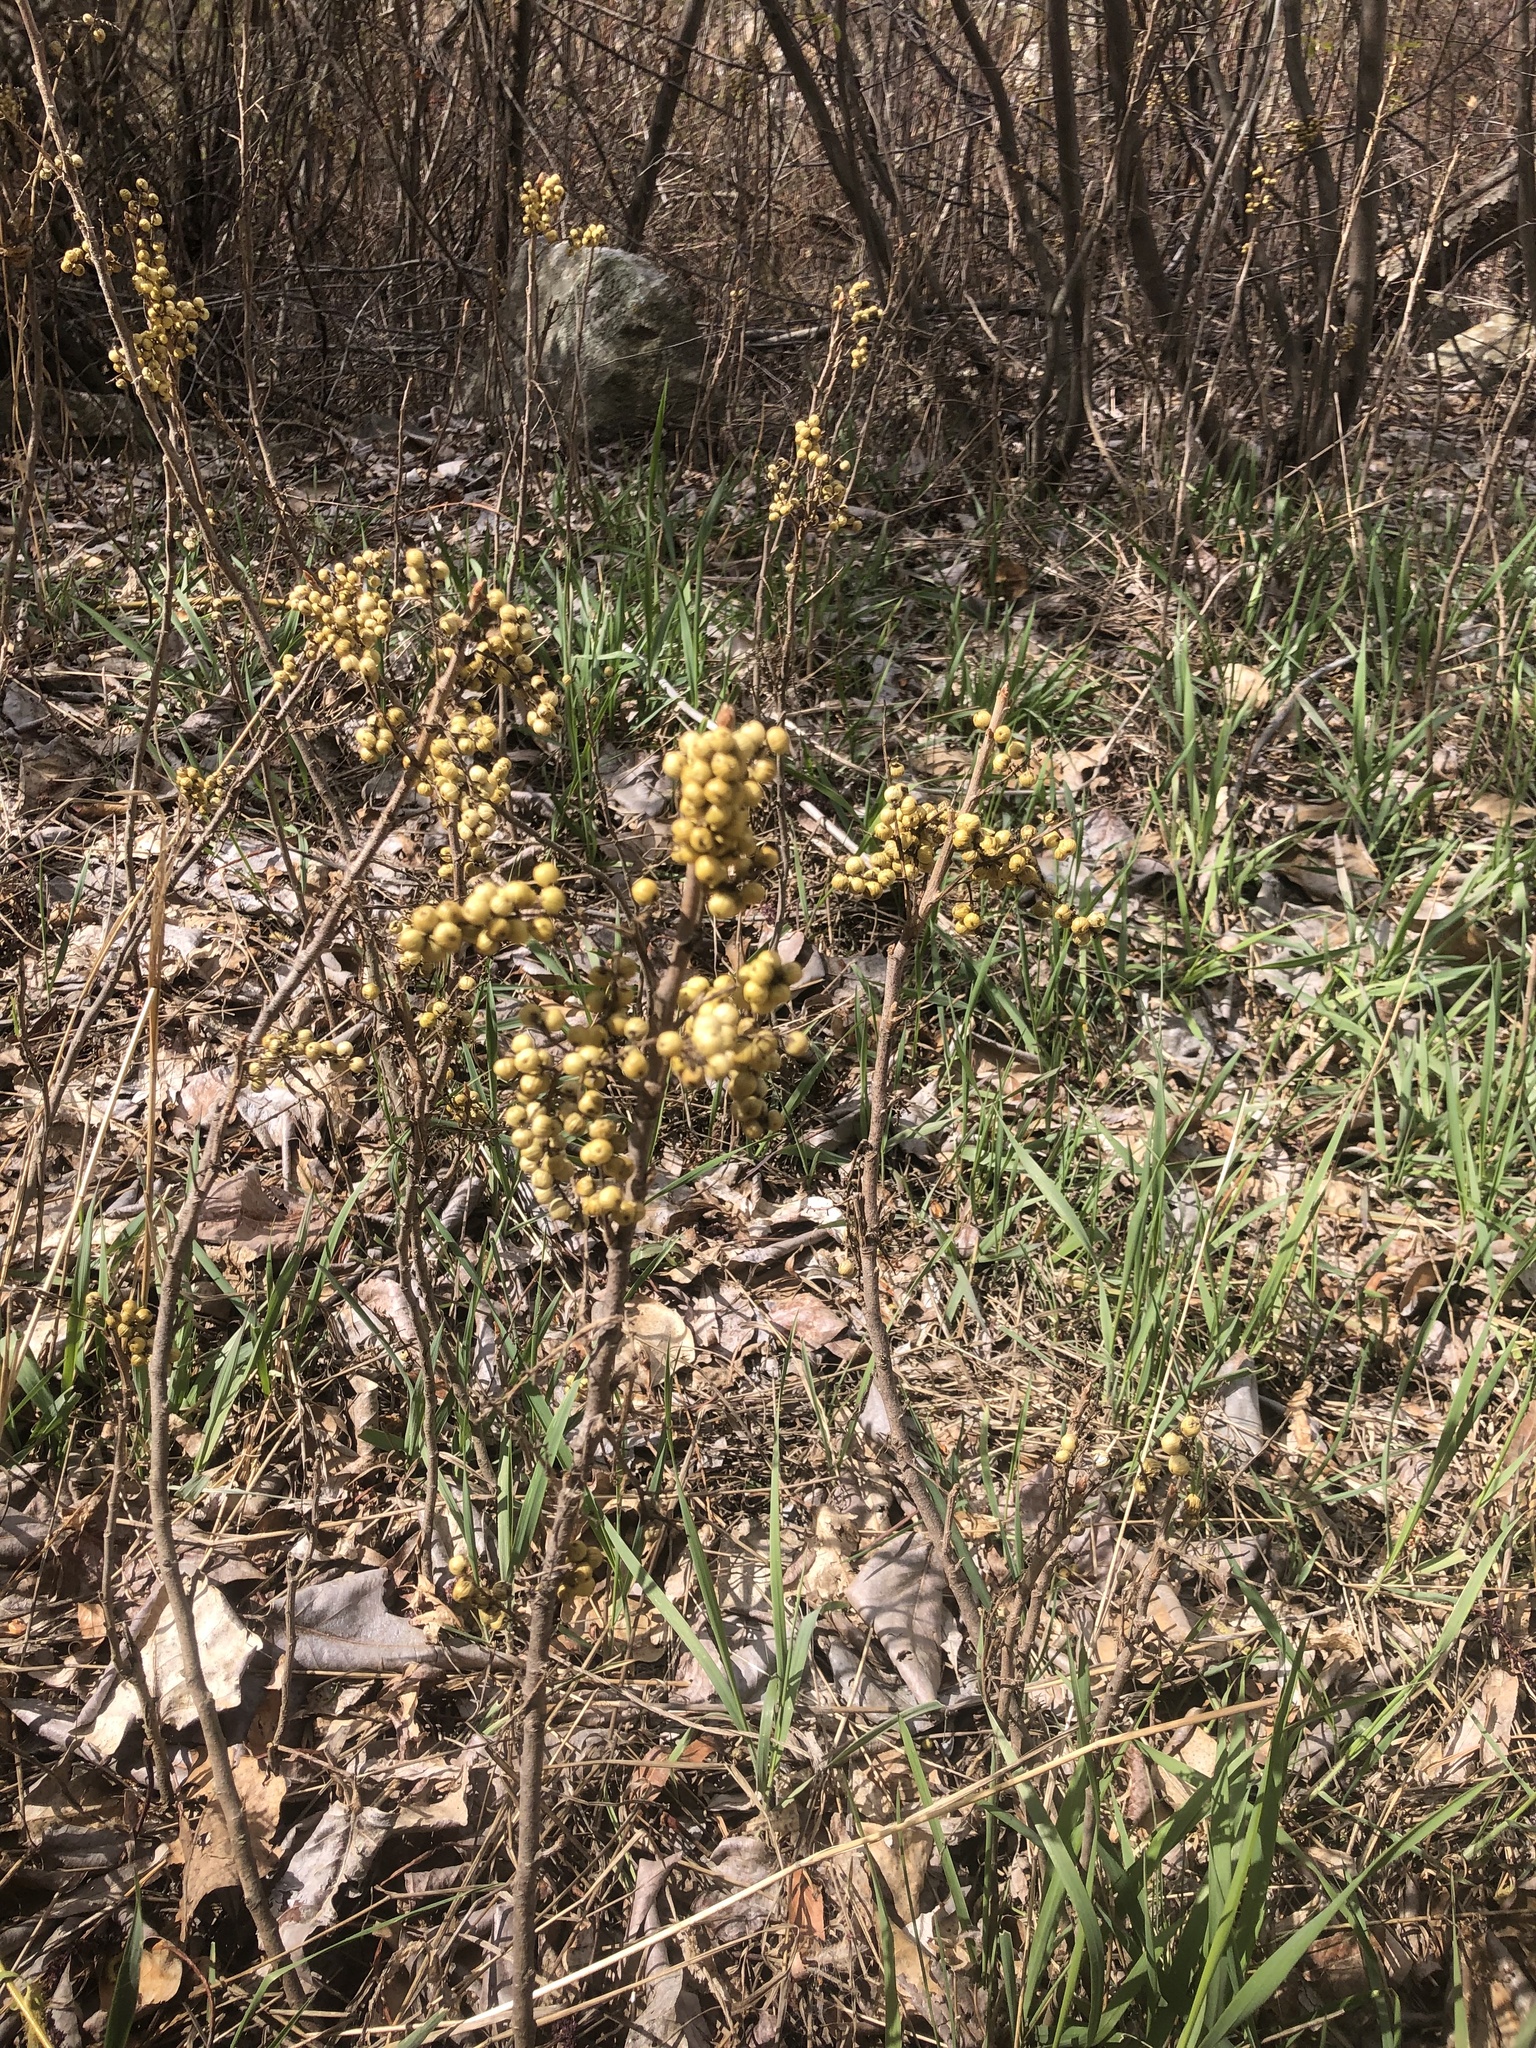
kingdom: Plantae
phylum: Tracheophyta
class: Magnoliopsida
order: Sapindales
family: Anacardiaceae
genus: Toxicodendron
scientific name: Toxicodendron rydbergii
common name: Rydberg's poison-ivy
